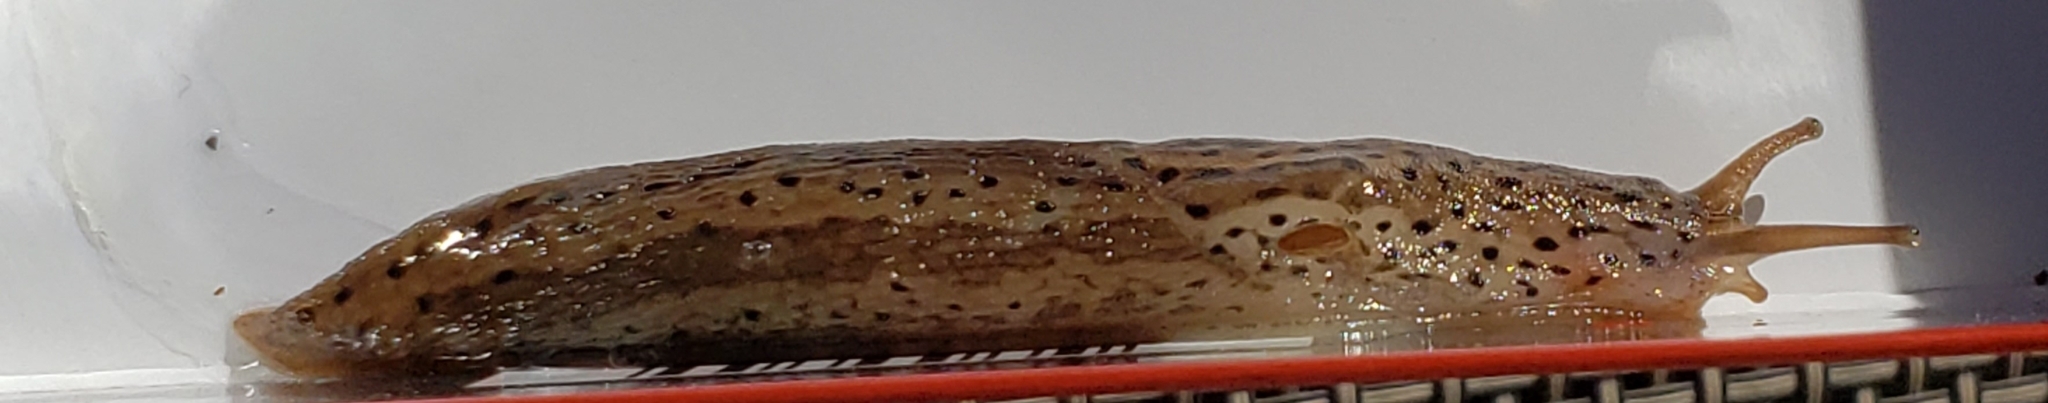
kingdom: Animalia
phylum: Mollusca
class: Gastropoda
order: Stylommatophora
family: Limacidae
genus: Limax
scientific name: Limax maximus
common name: Great grey slug
